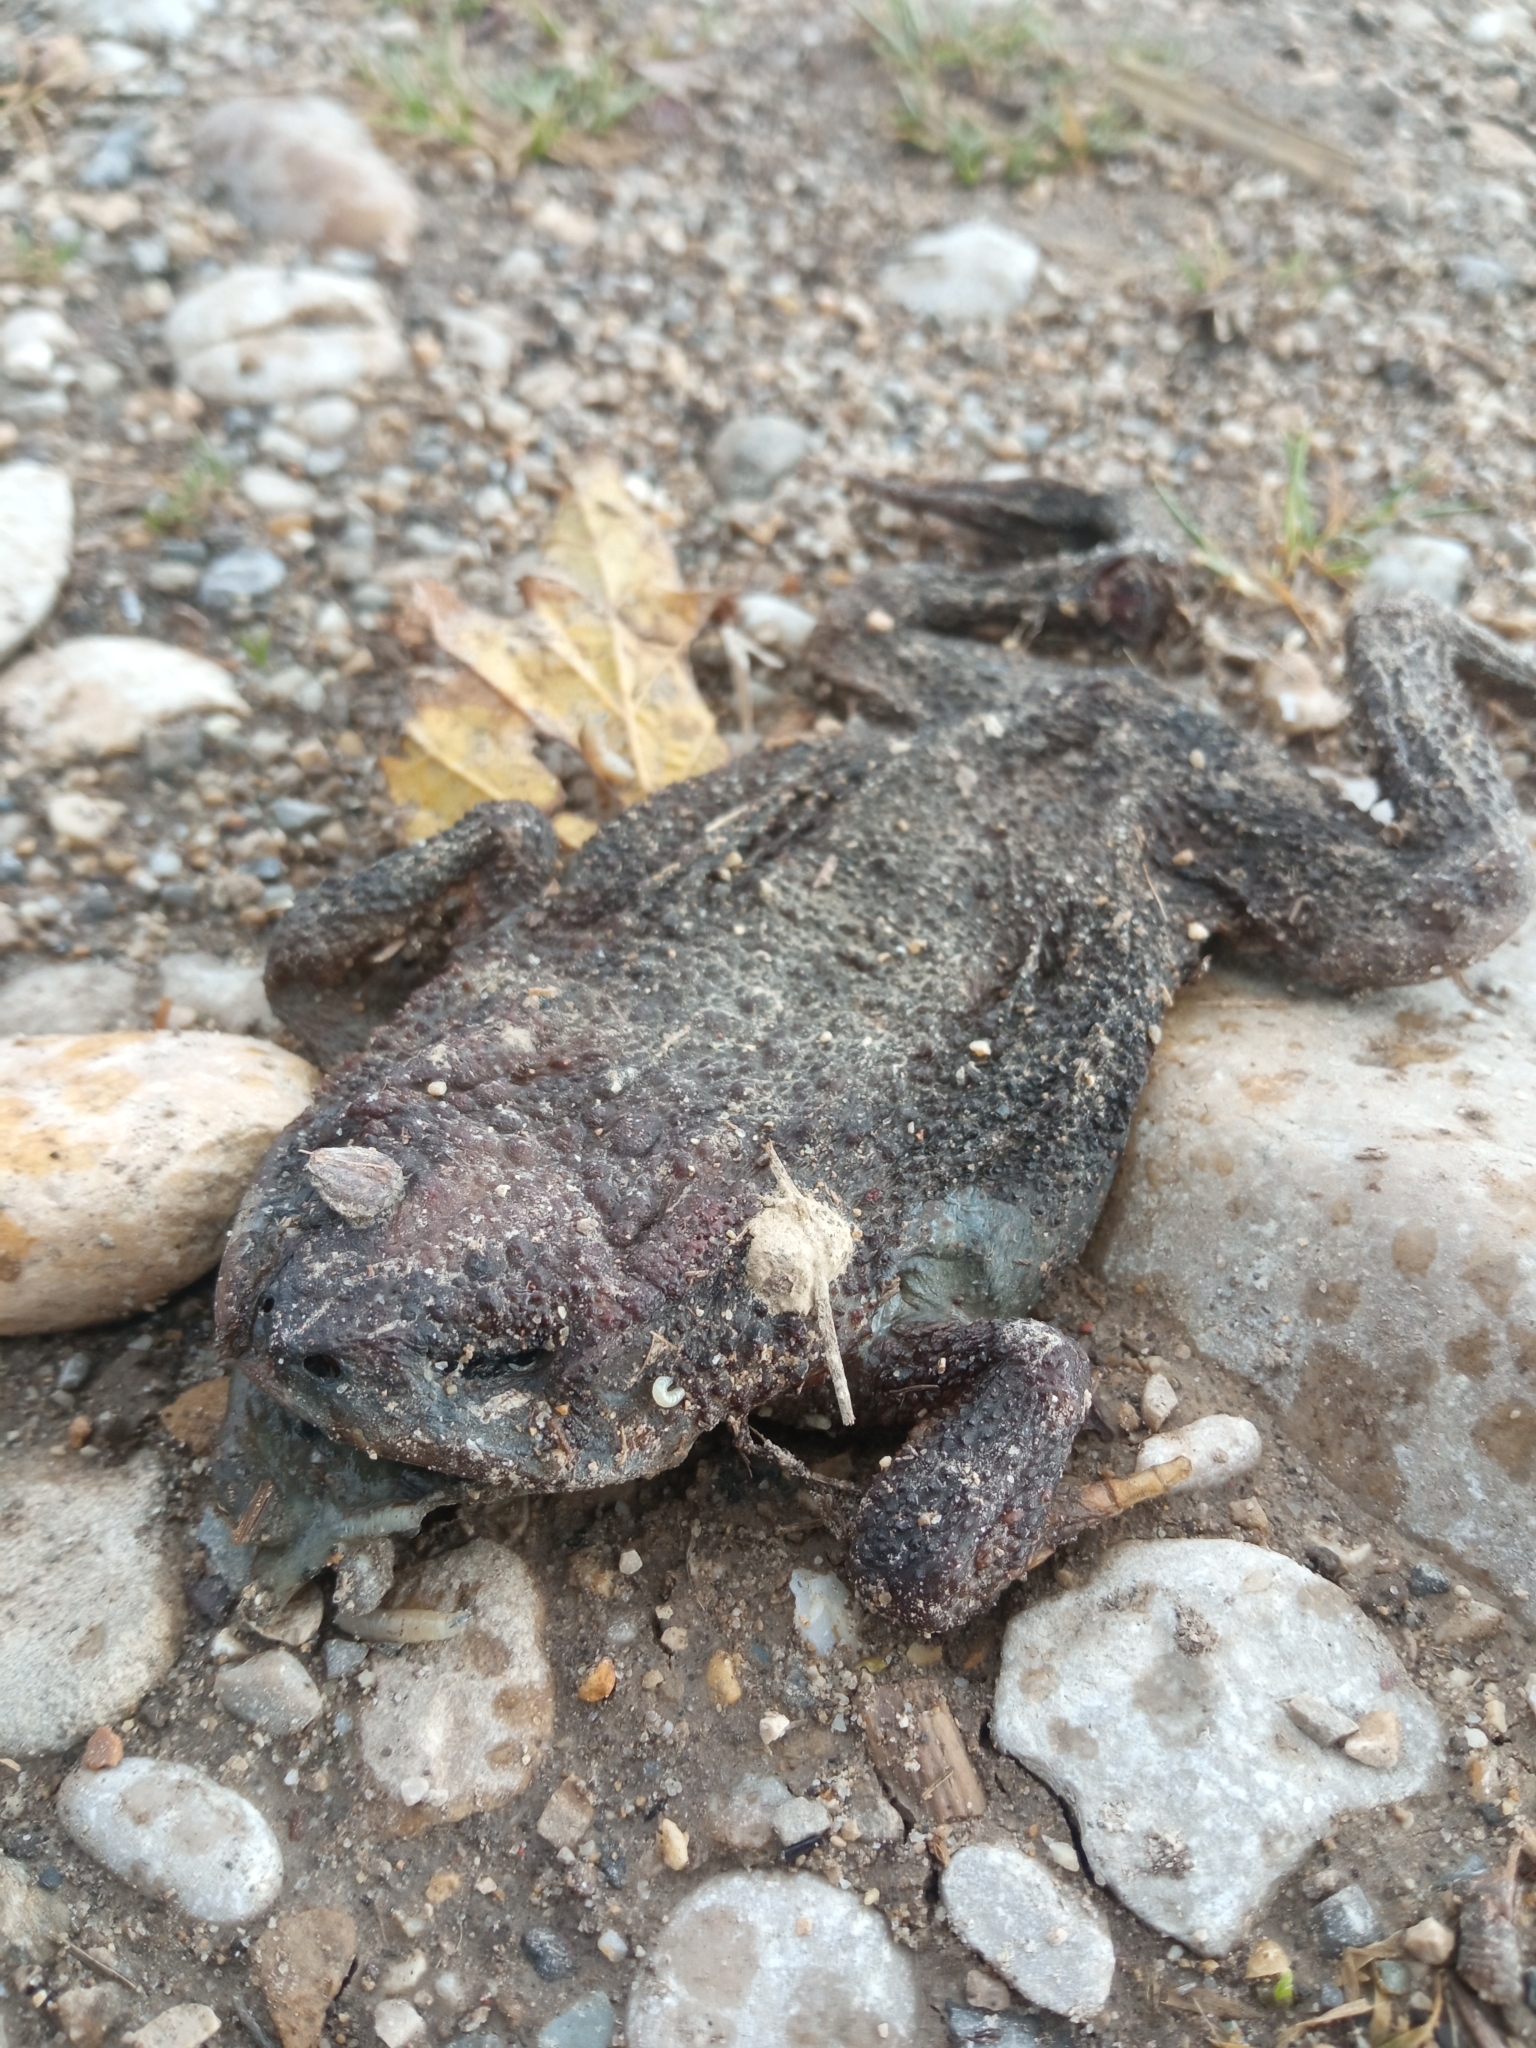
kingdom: Animalia
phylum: Chordata
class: Amphibia
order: Anura
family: Bufonidae
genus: Bufo
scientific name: Bufo bufo
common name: Common toad
